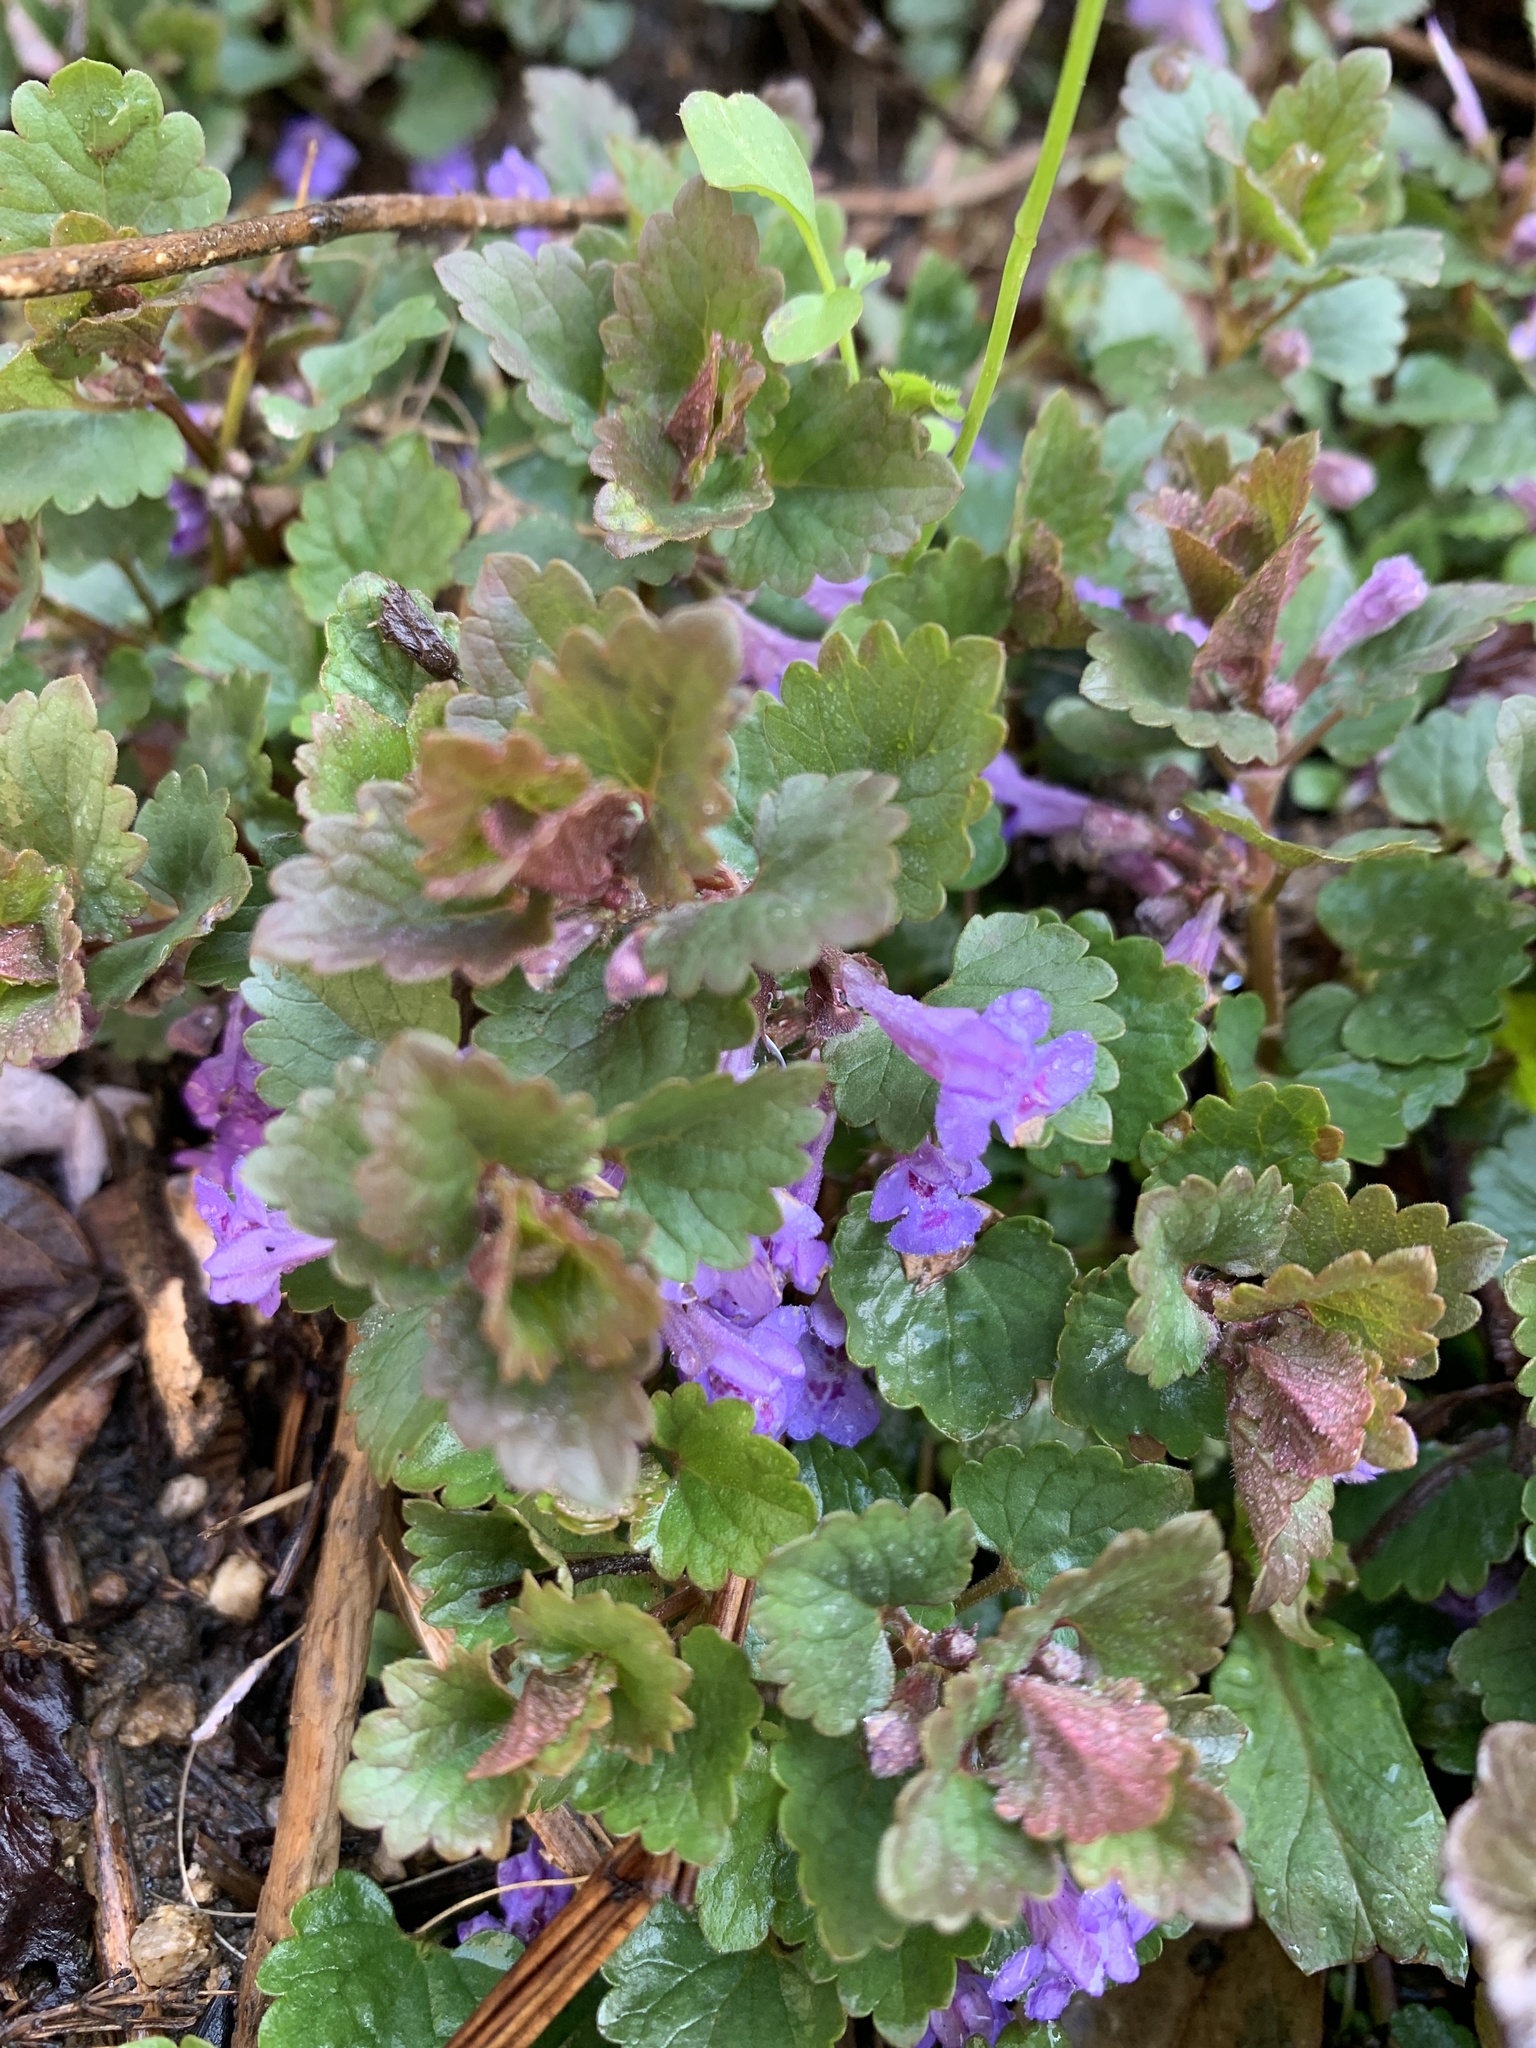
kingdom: Plantae
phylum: Tracheophyta
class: Magnoliopsida
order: Lamiales
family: Lamiaceae
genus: Glechoma
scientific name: Glechoma hederacea
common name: Ground ivy
